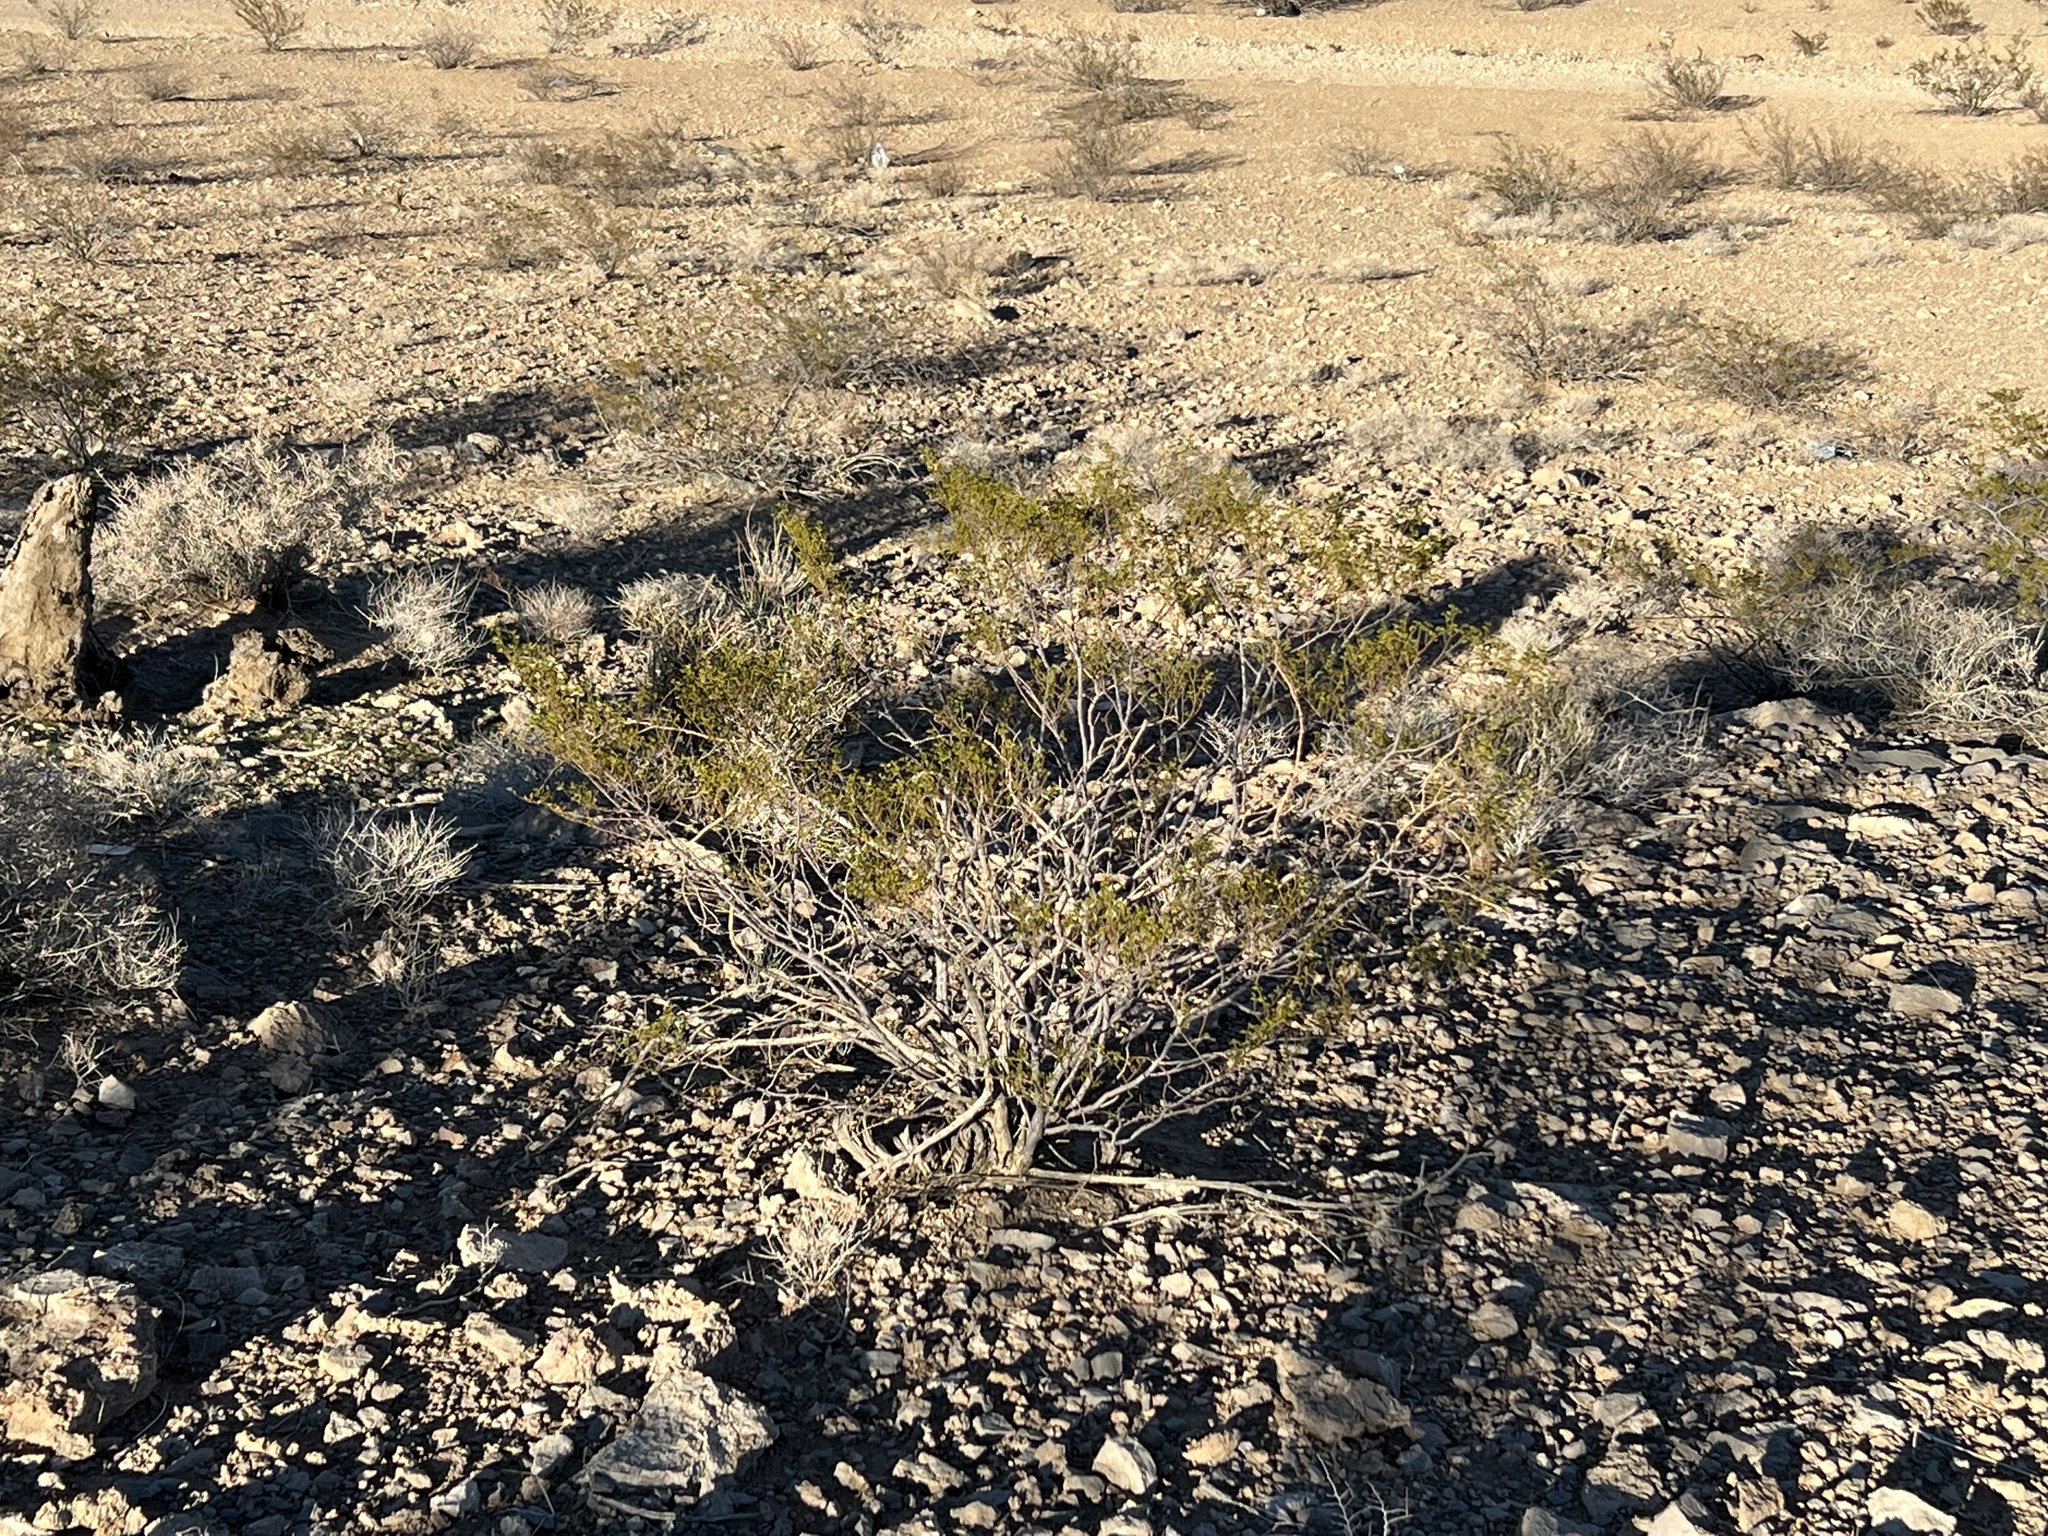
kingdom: Plantae
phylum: Tracheophyta
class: Magnoliopsida
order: Zygophyllales
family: Zygophyllaceae
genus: Larrea
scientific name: Larrea tridentata
